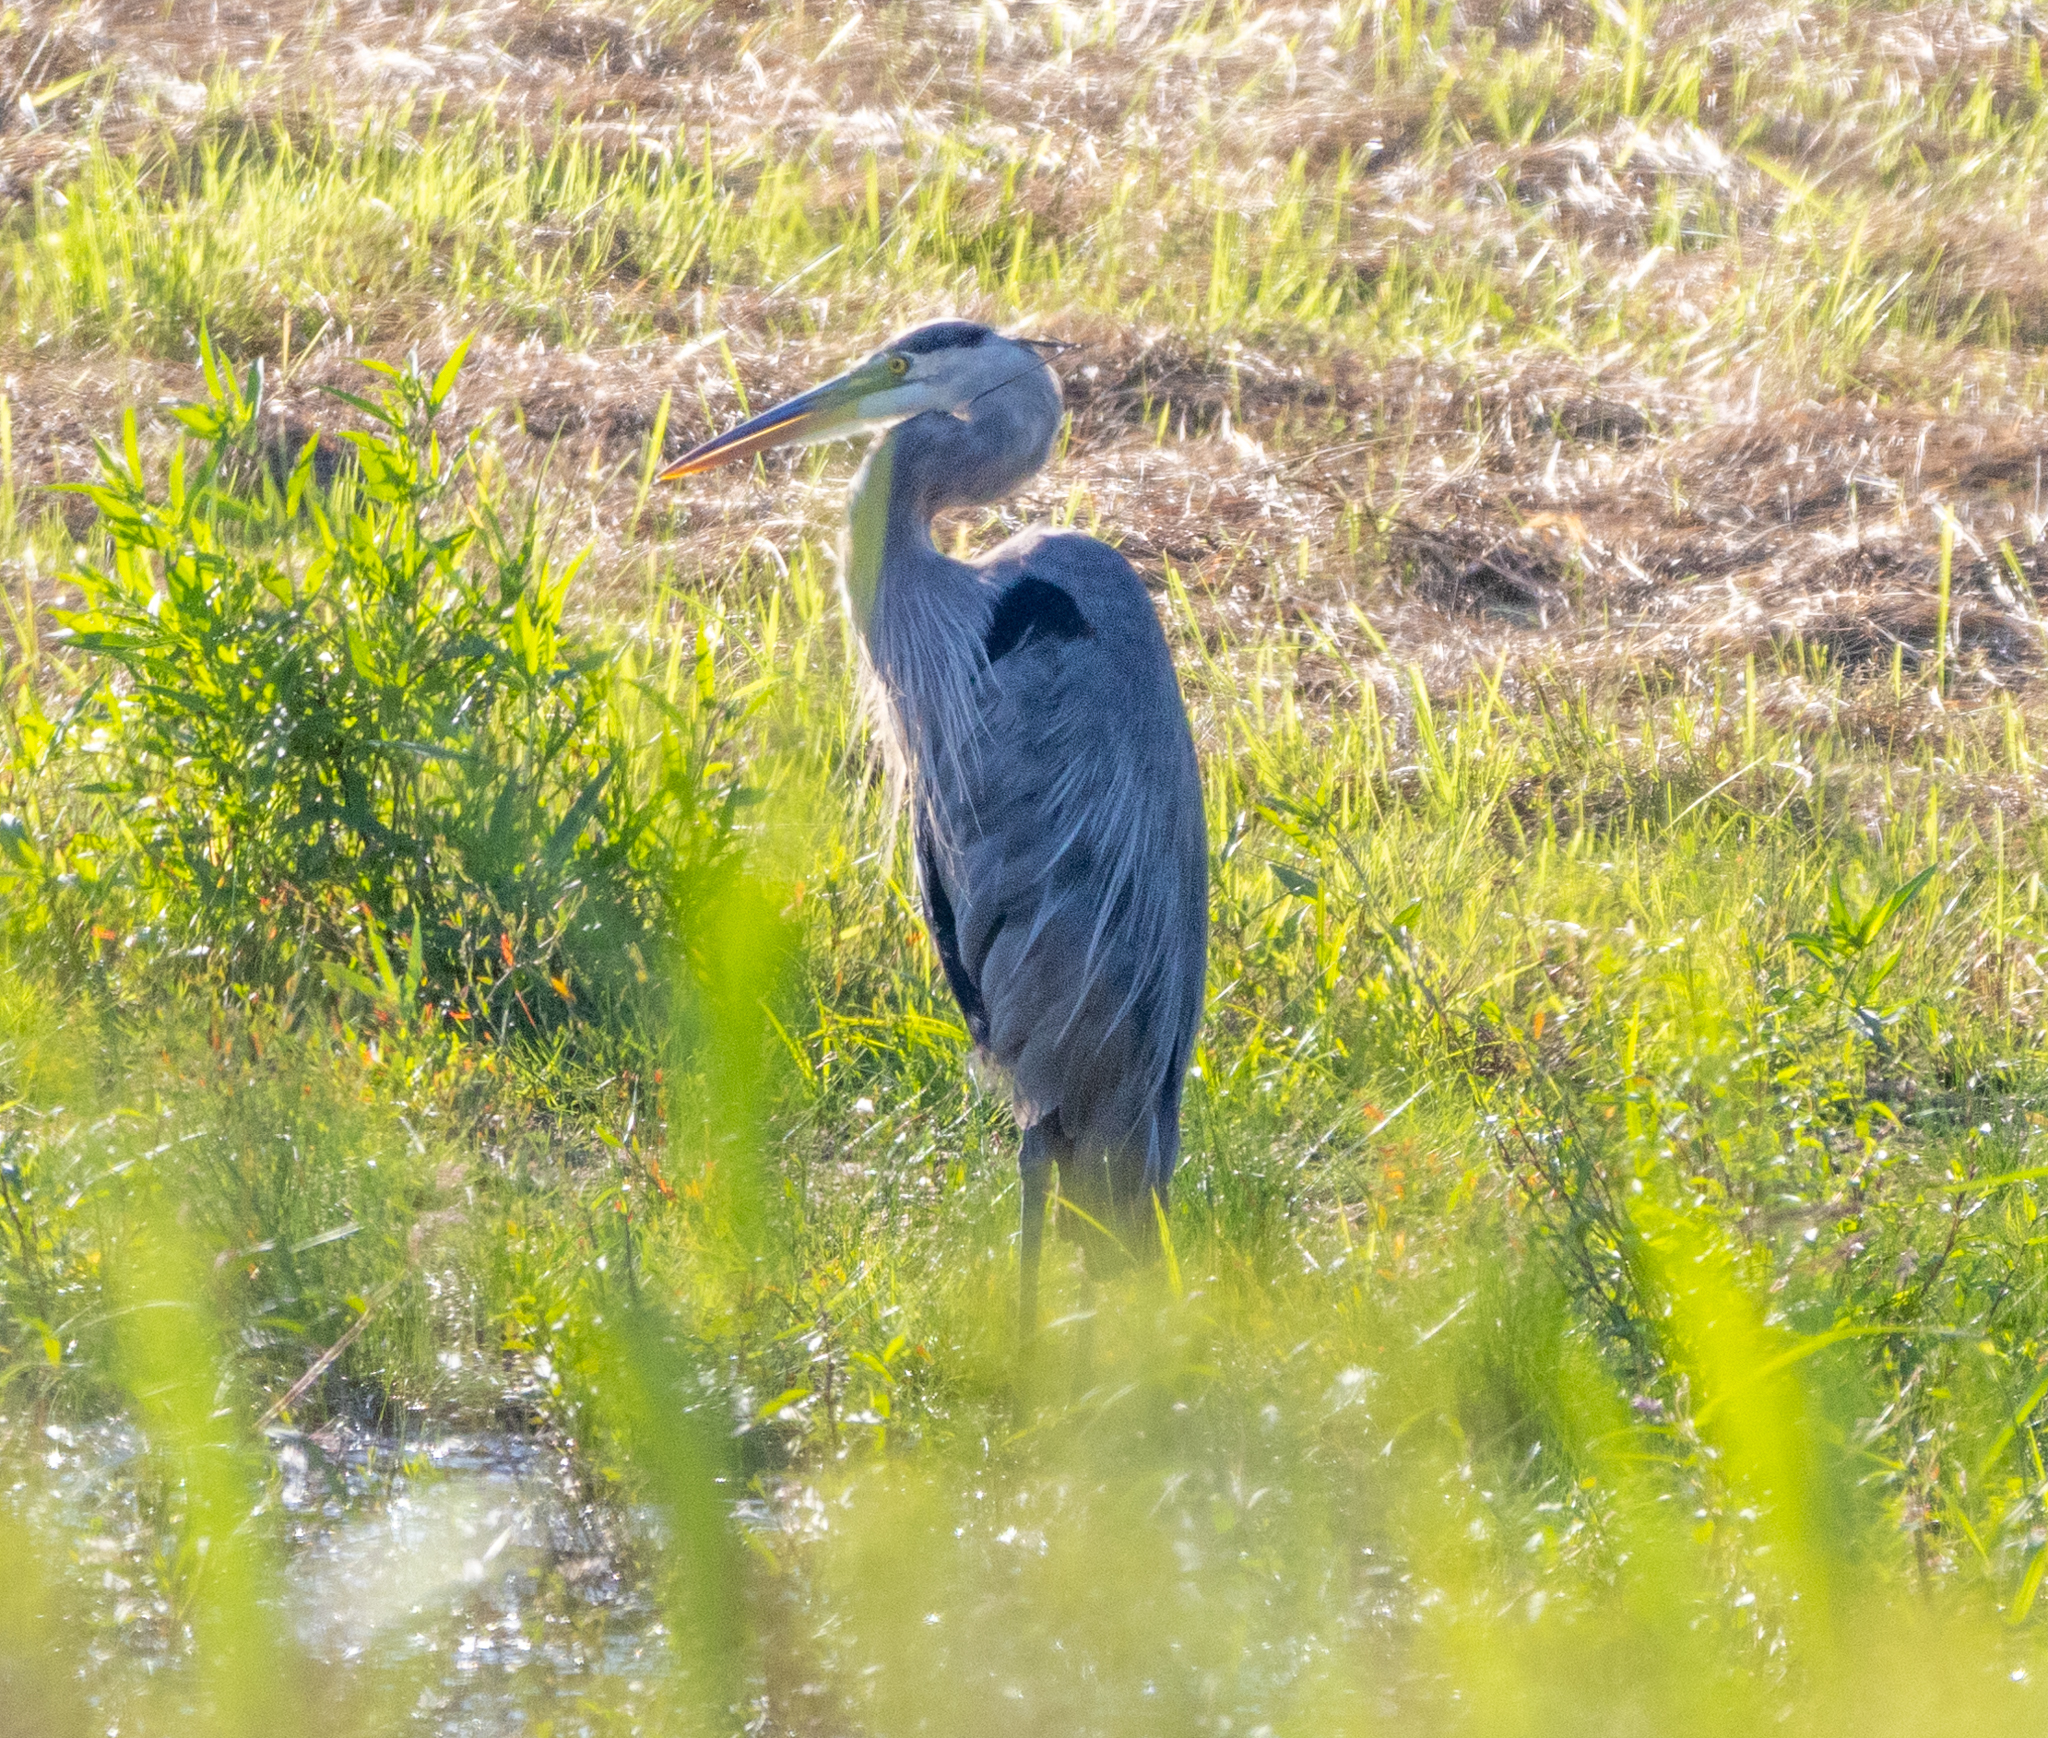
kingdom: Animalia
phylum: Chordata
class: Aves
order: Pelecaniformes
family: Ardeidae
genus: Ardea
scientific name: Ardea herodias
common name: Great blue heron
